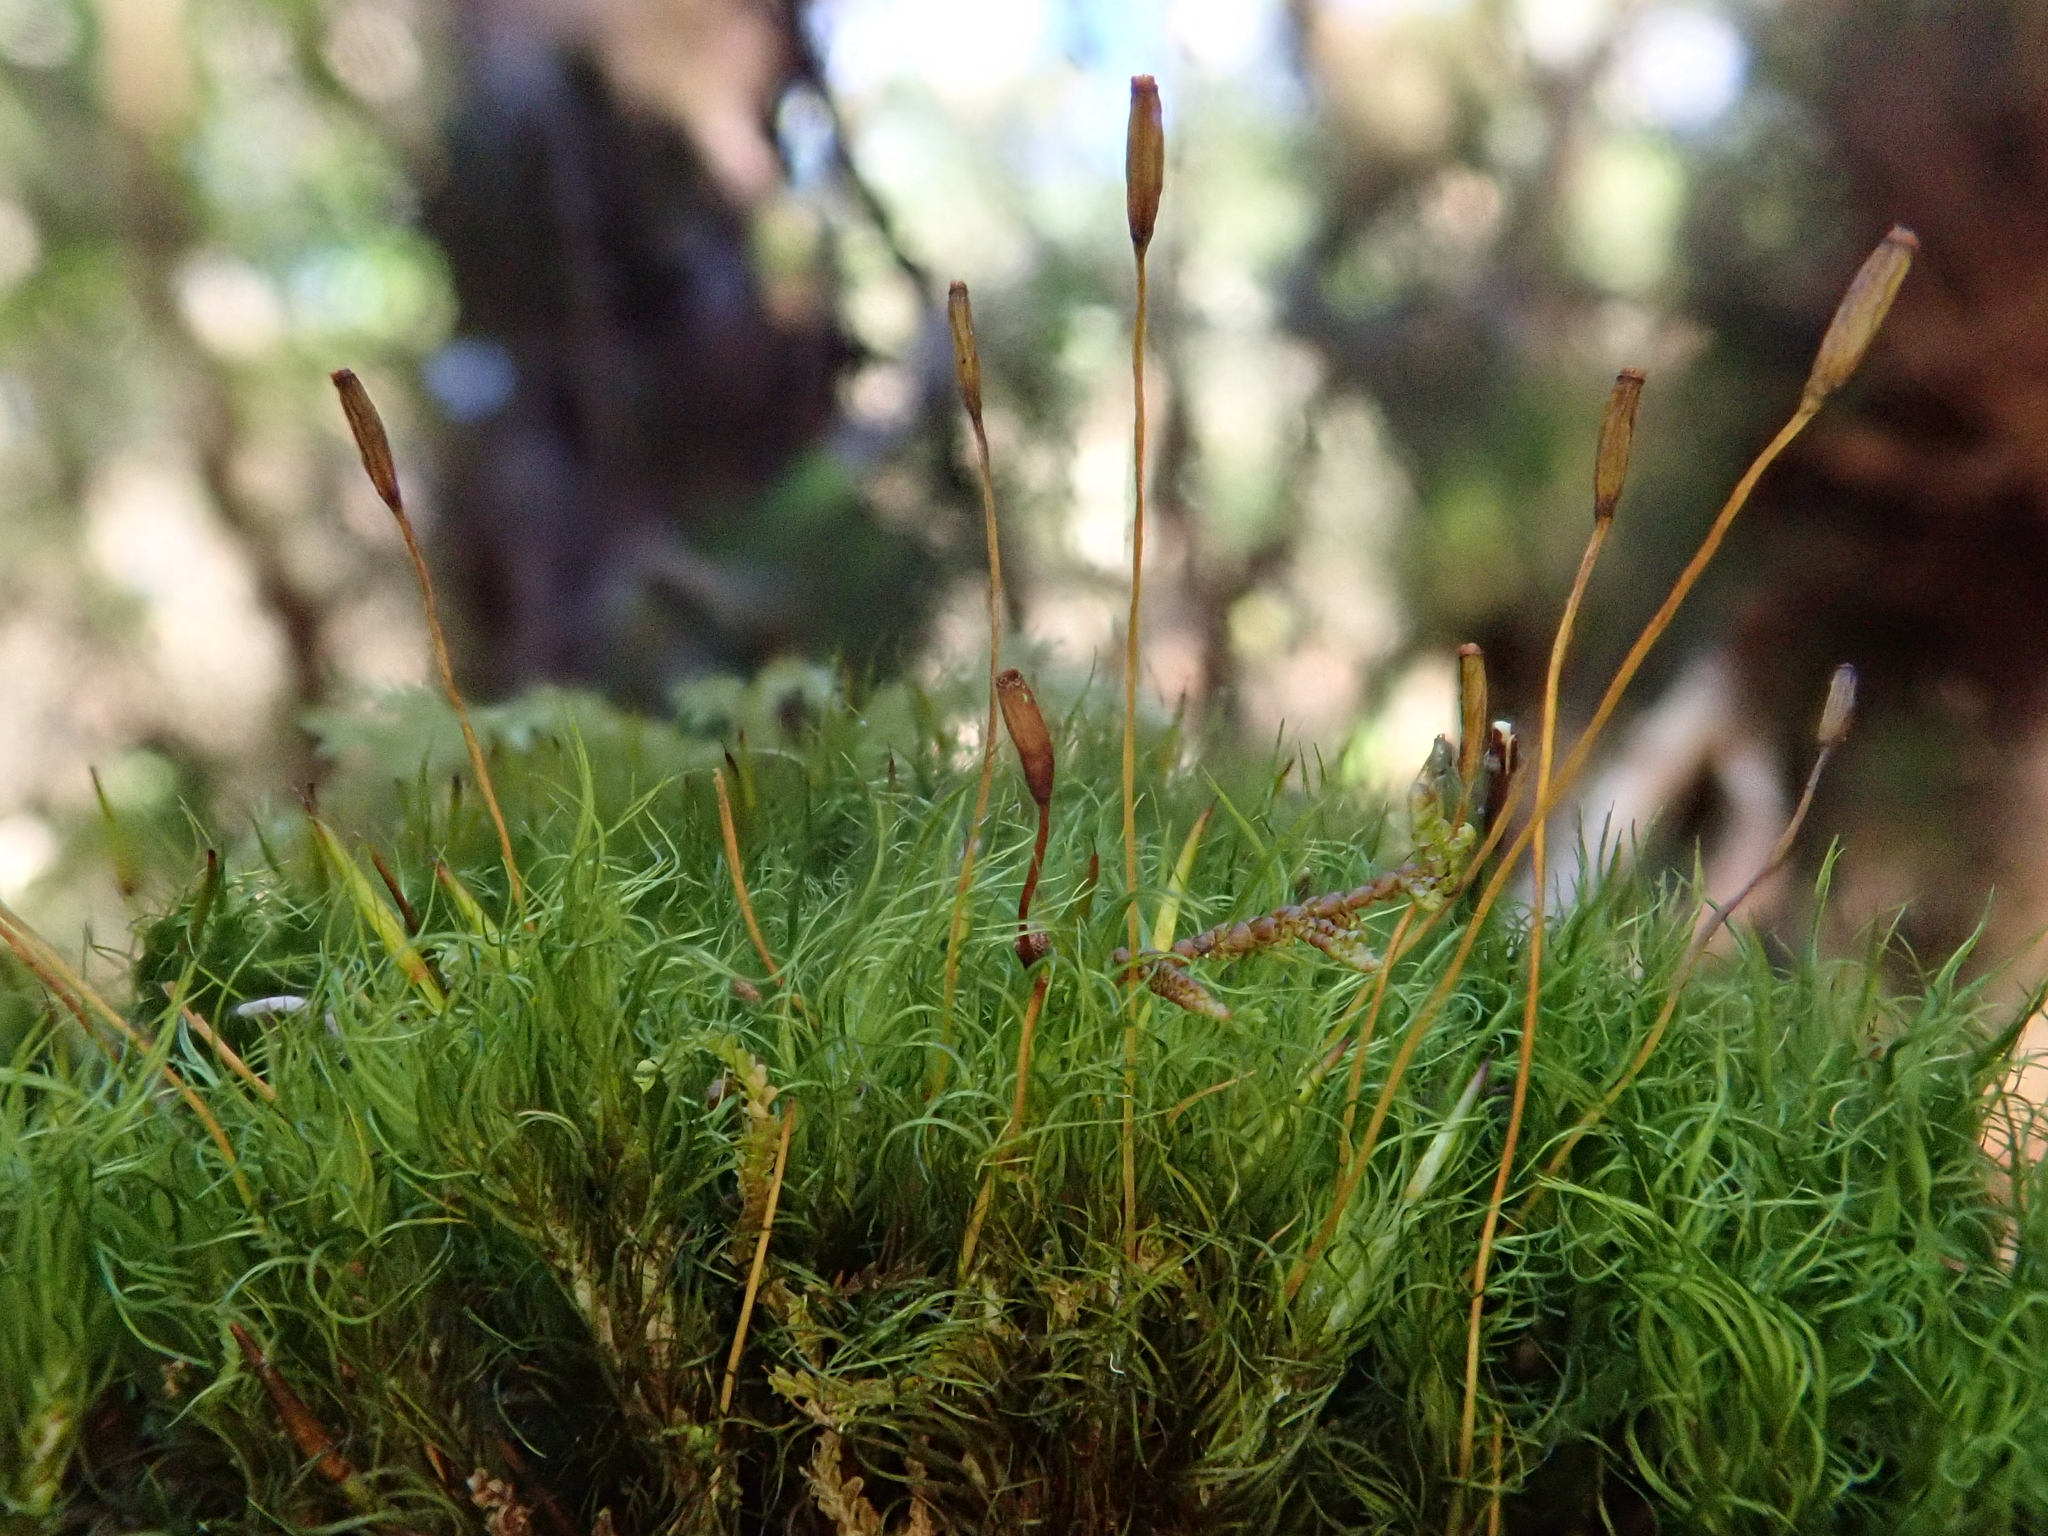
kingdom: Plantae
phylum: Bryophyta
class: Bryopsida
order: Dicranales
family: Dicranaceae
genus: Dicranum
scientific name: Dicranum scottianum
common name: Scott's fork-moss
